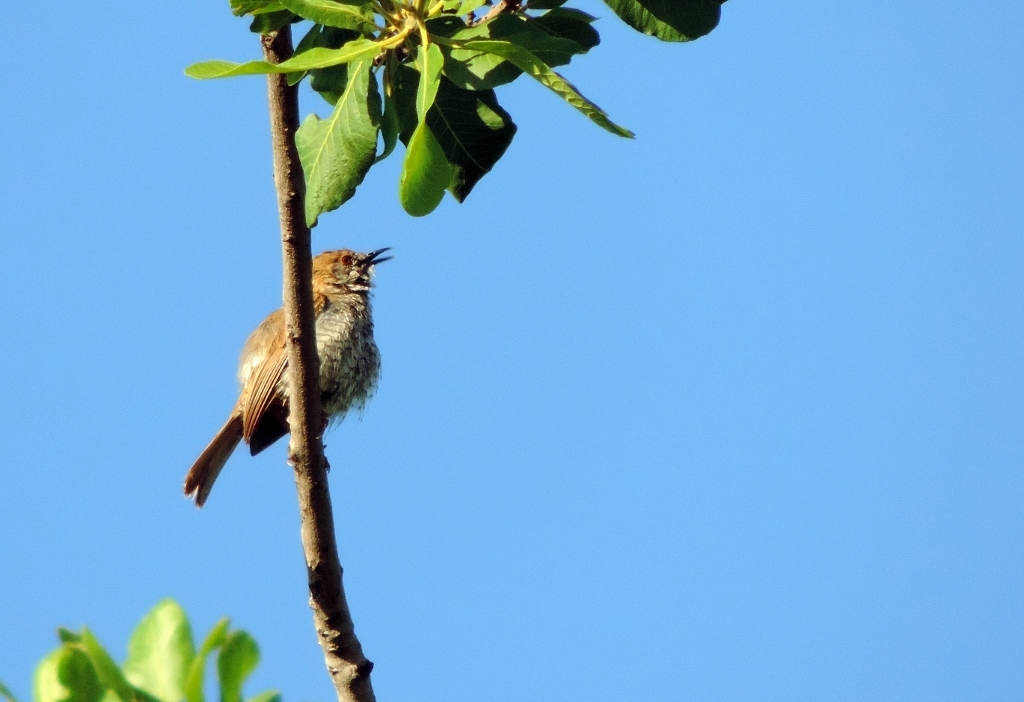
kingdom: Animalia
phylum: Chordata
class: Aves
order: Passeriformes
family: Cisticolidae
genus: Calamonastes
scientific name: Calamonastes stierlingi
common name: Stierling's wren-warbler
